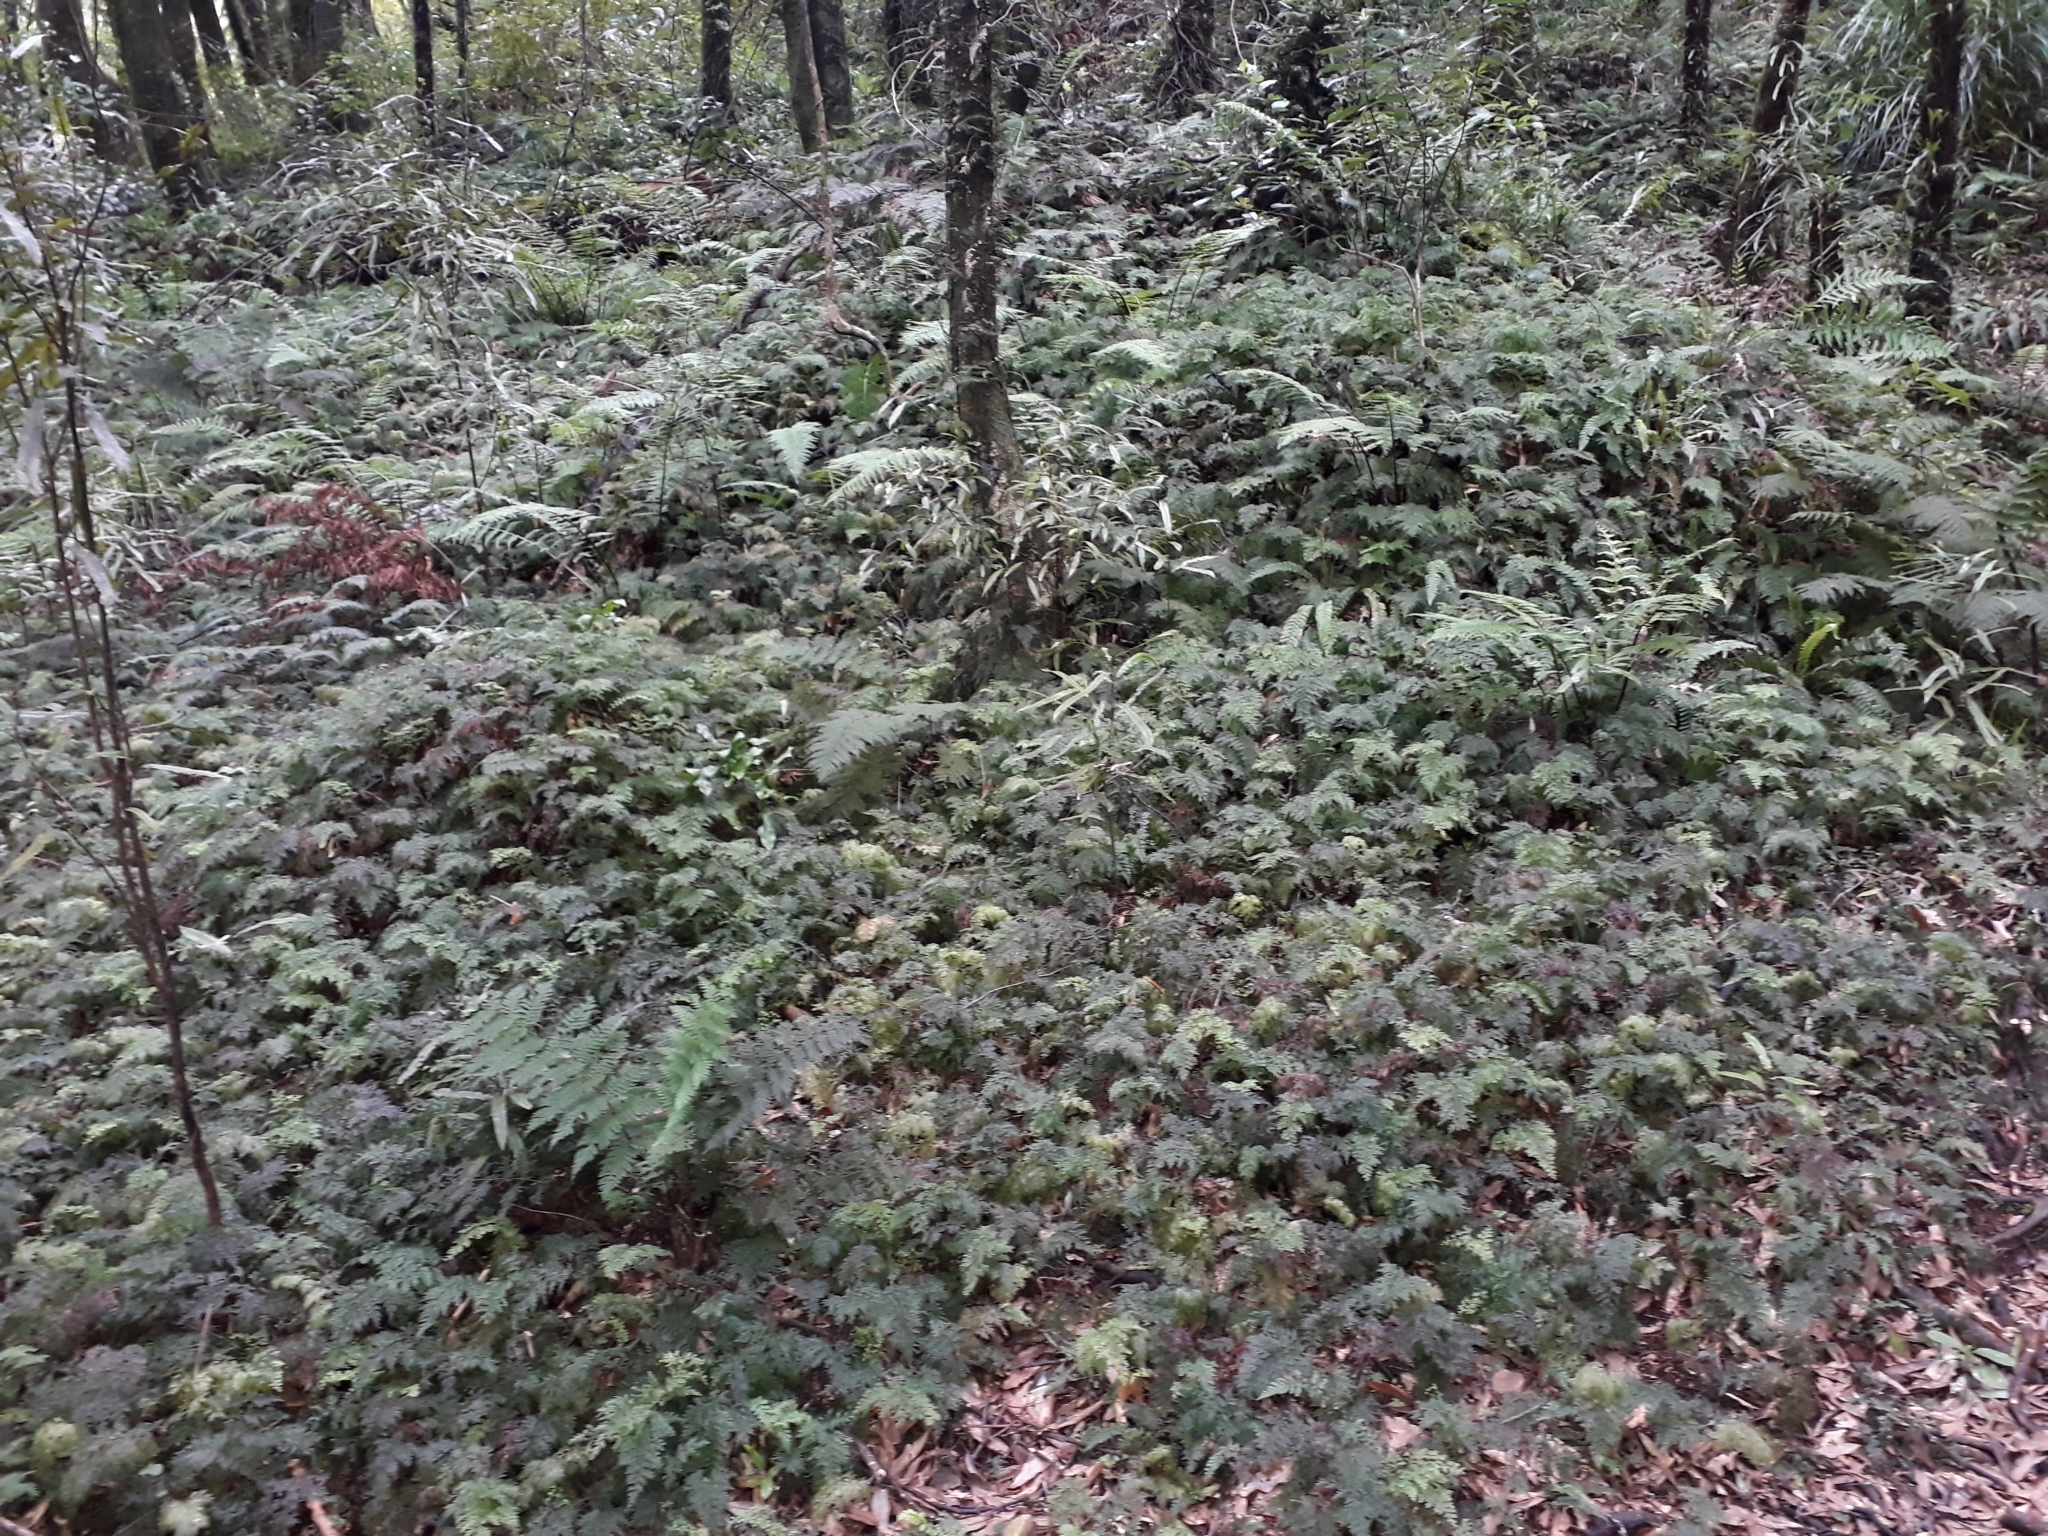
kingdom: Plantae
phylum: Tracheophyta
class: Polypodiopsida
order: Hymenophyllales
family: Hymenophyllaceae
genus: Hymenophyllum
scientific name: Hymenophyllum demissum
